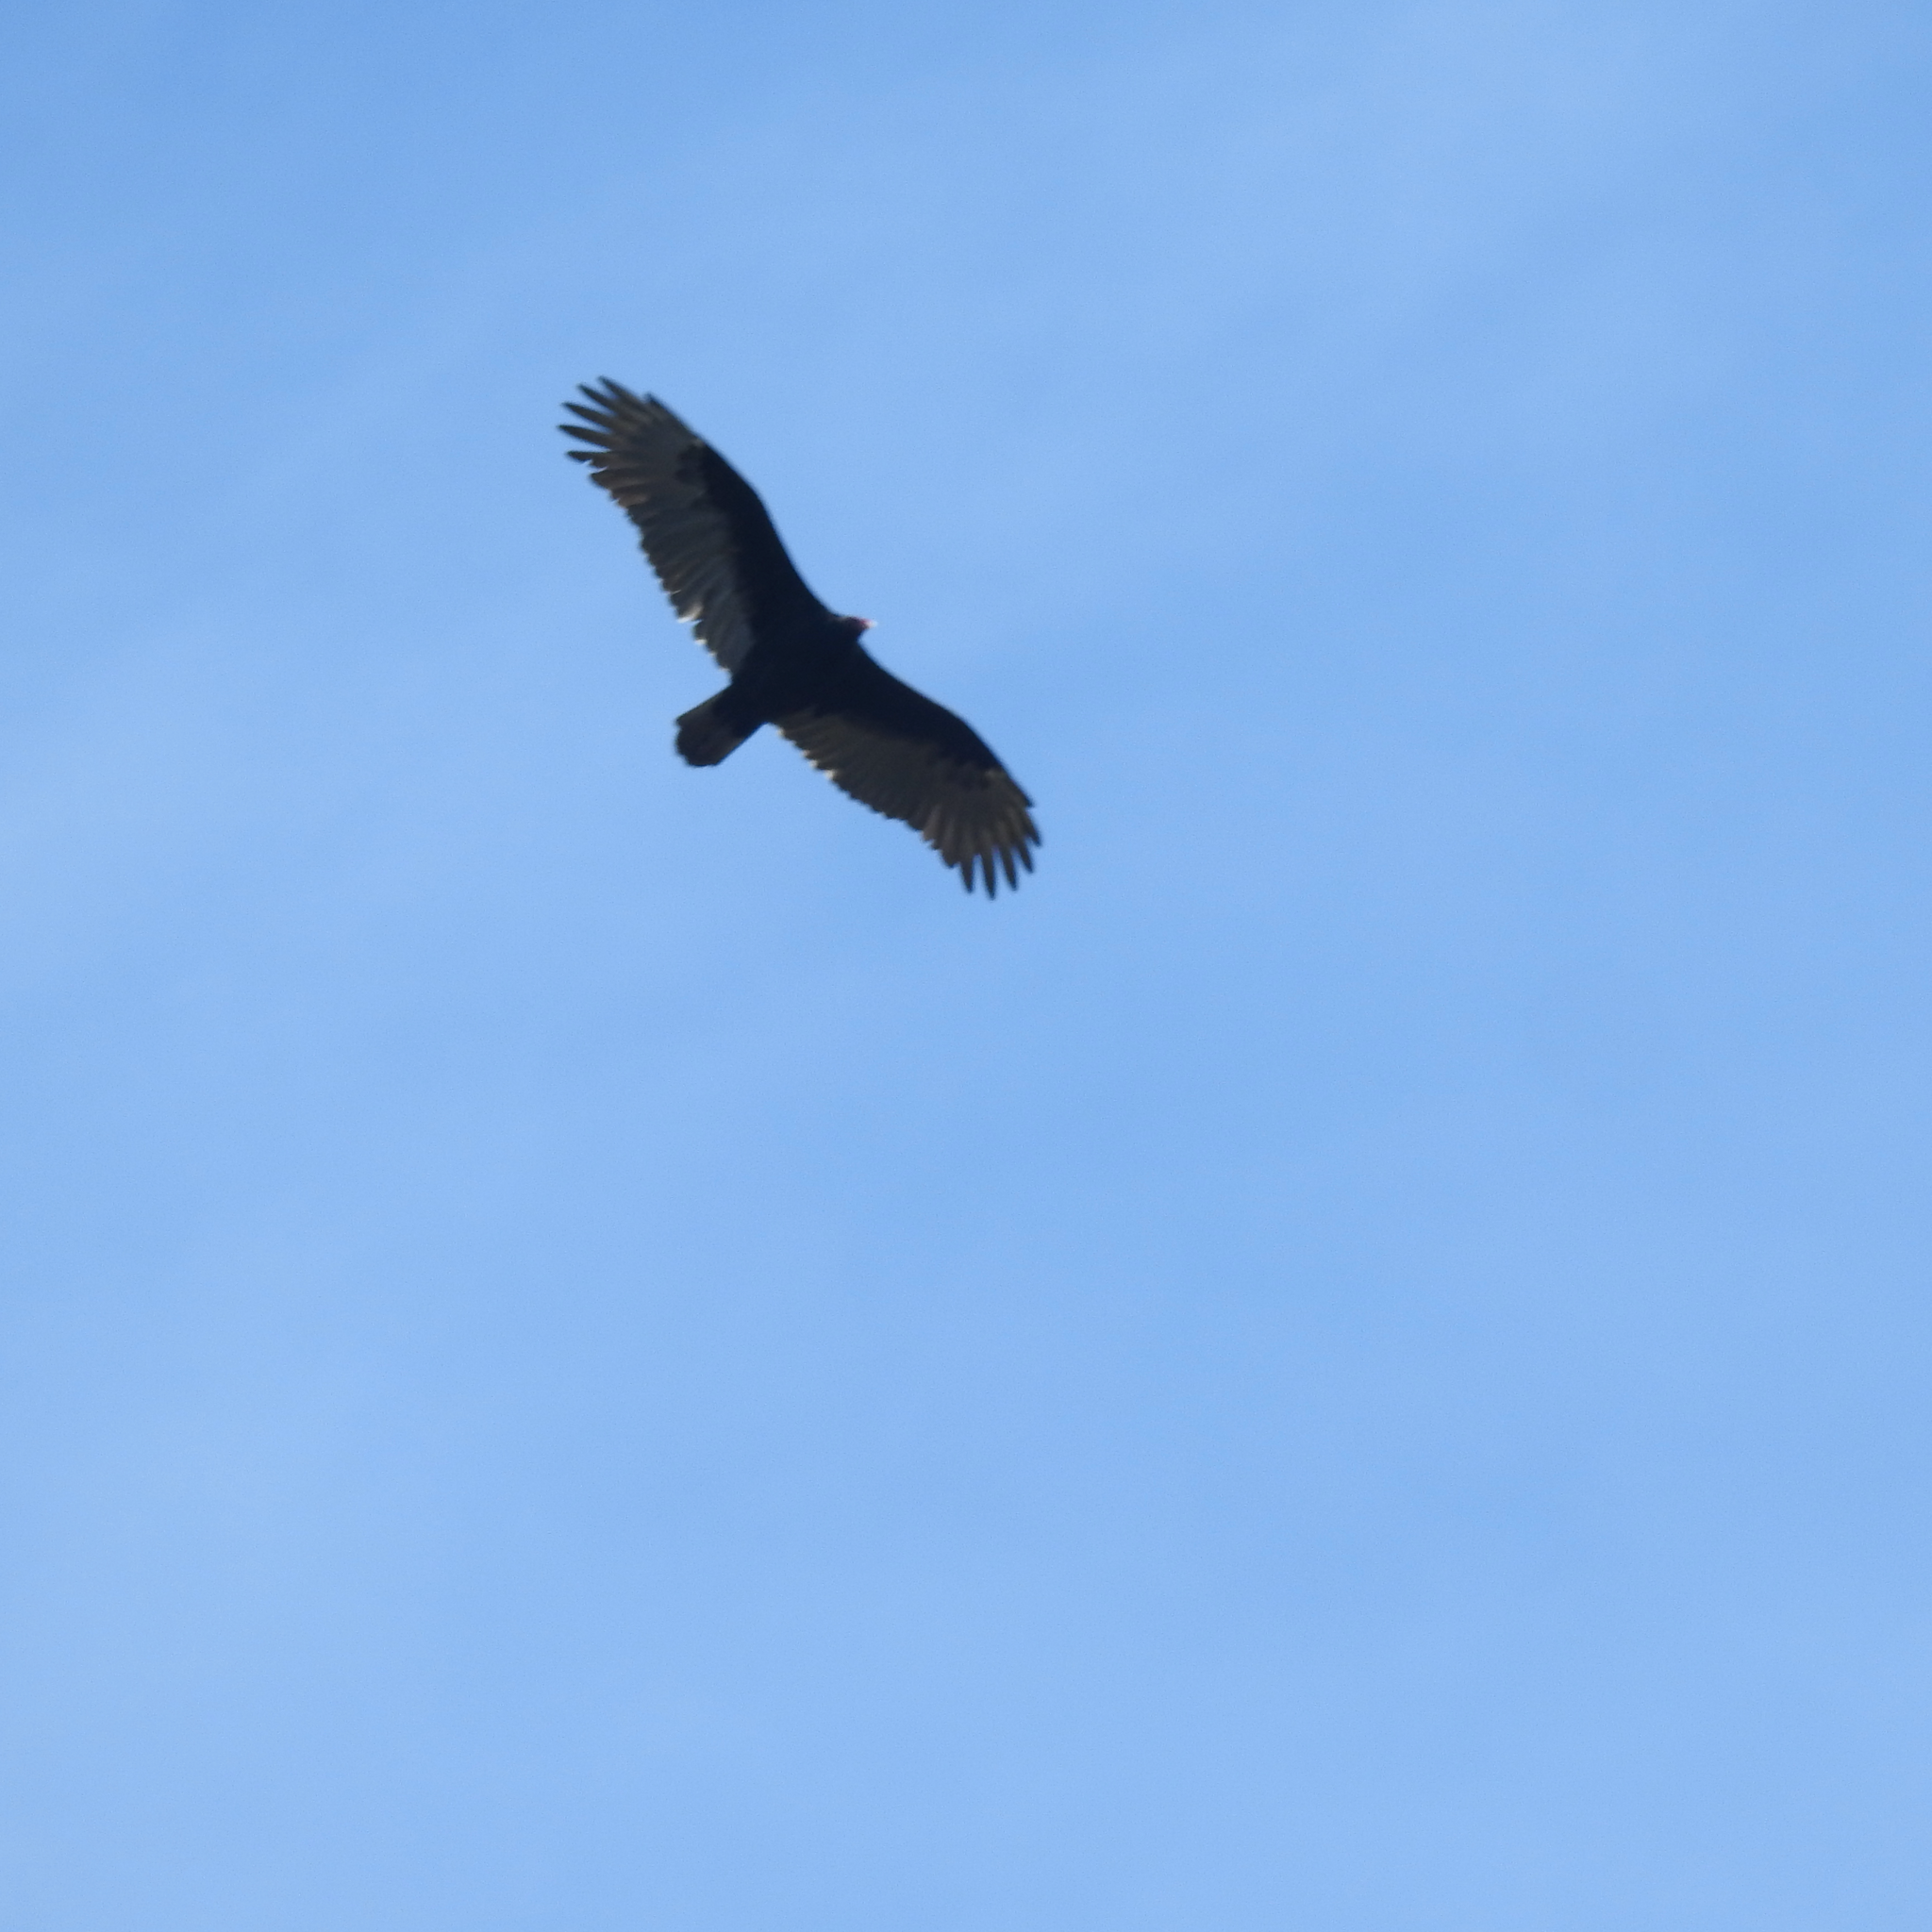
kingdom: Animalia
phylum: Chordata
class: Aves
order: Accipitriformes
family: Cathartidae
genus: Cathartes
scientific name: Cathartes aura
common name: Turkey vulture
